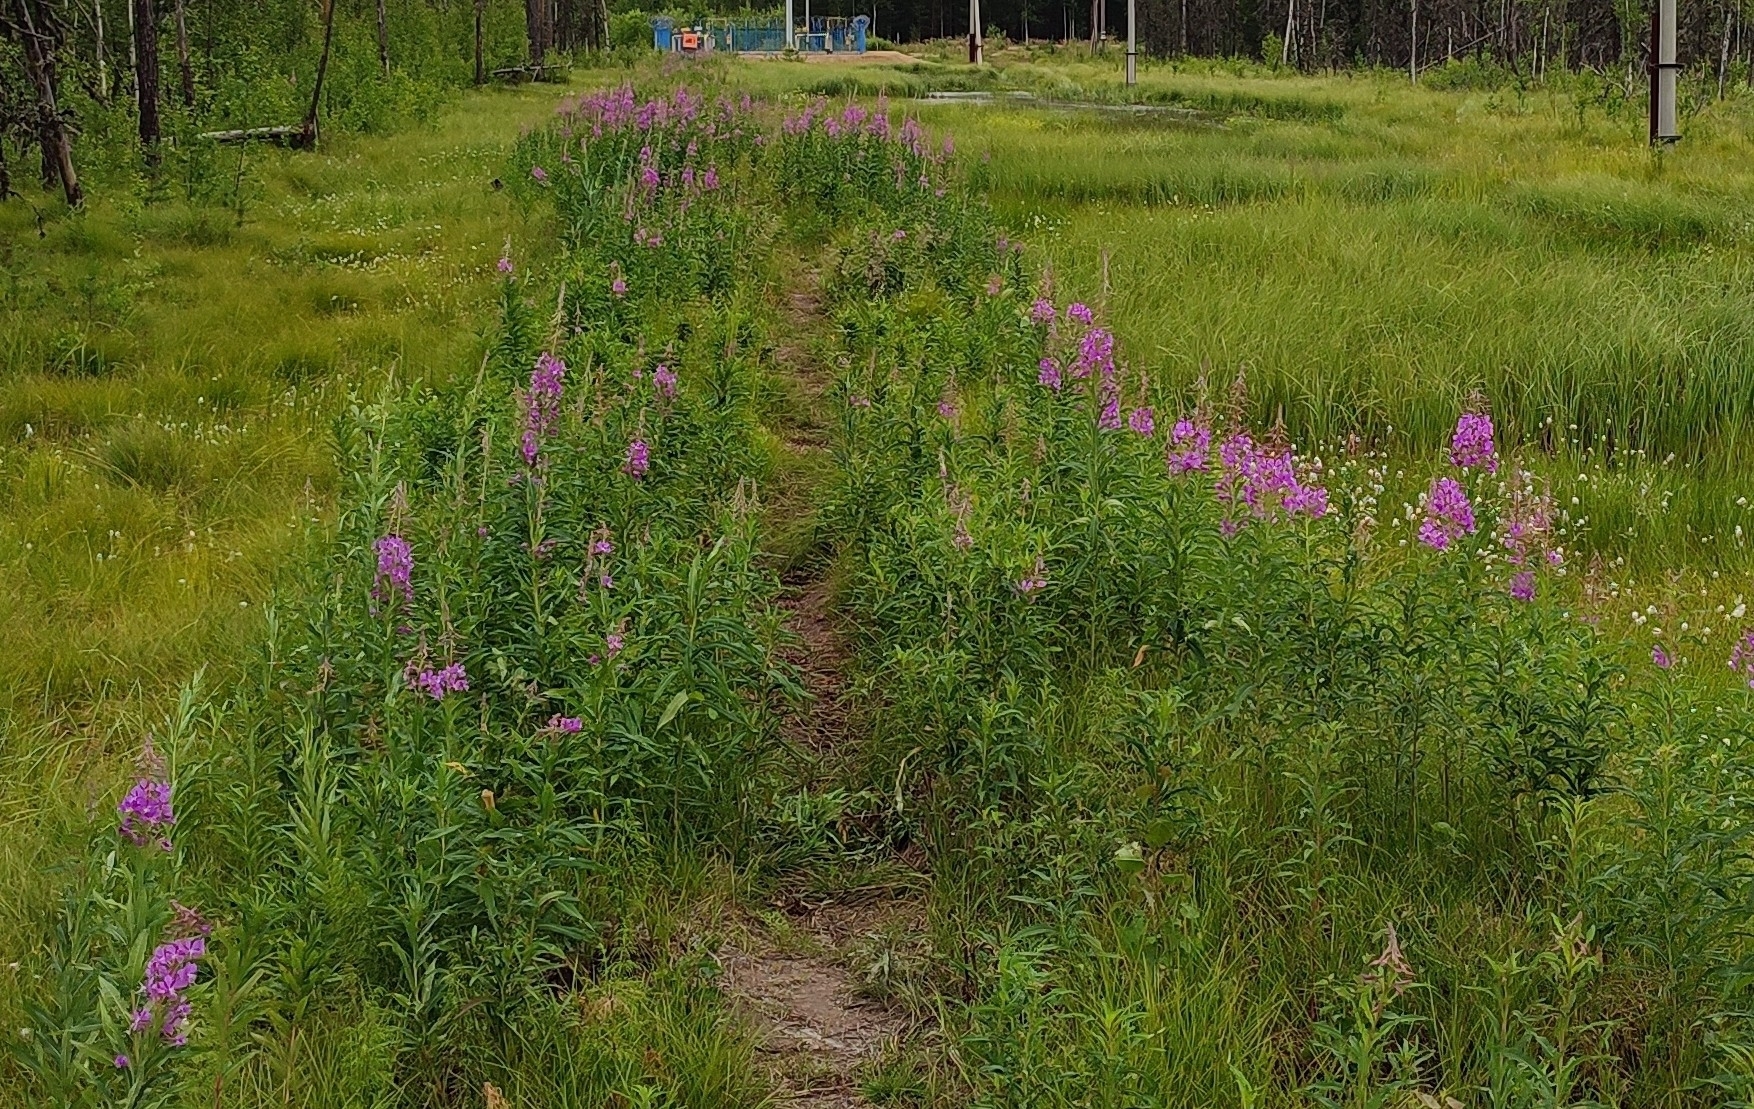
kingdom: Plantae
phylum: Tracheophyta
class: Magnoliopsida
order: Myrtales
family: Onagraceae
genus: Chamaenerion
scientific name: Chamaenerion angustifolium
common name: Fireweed
